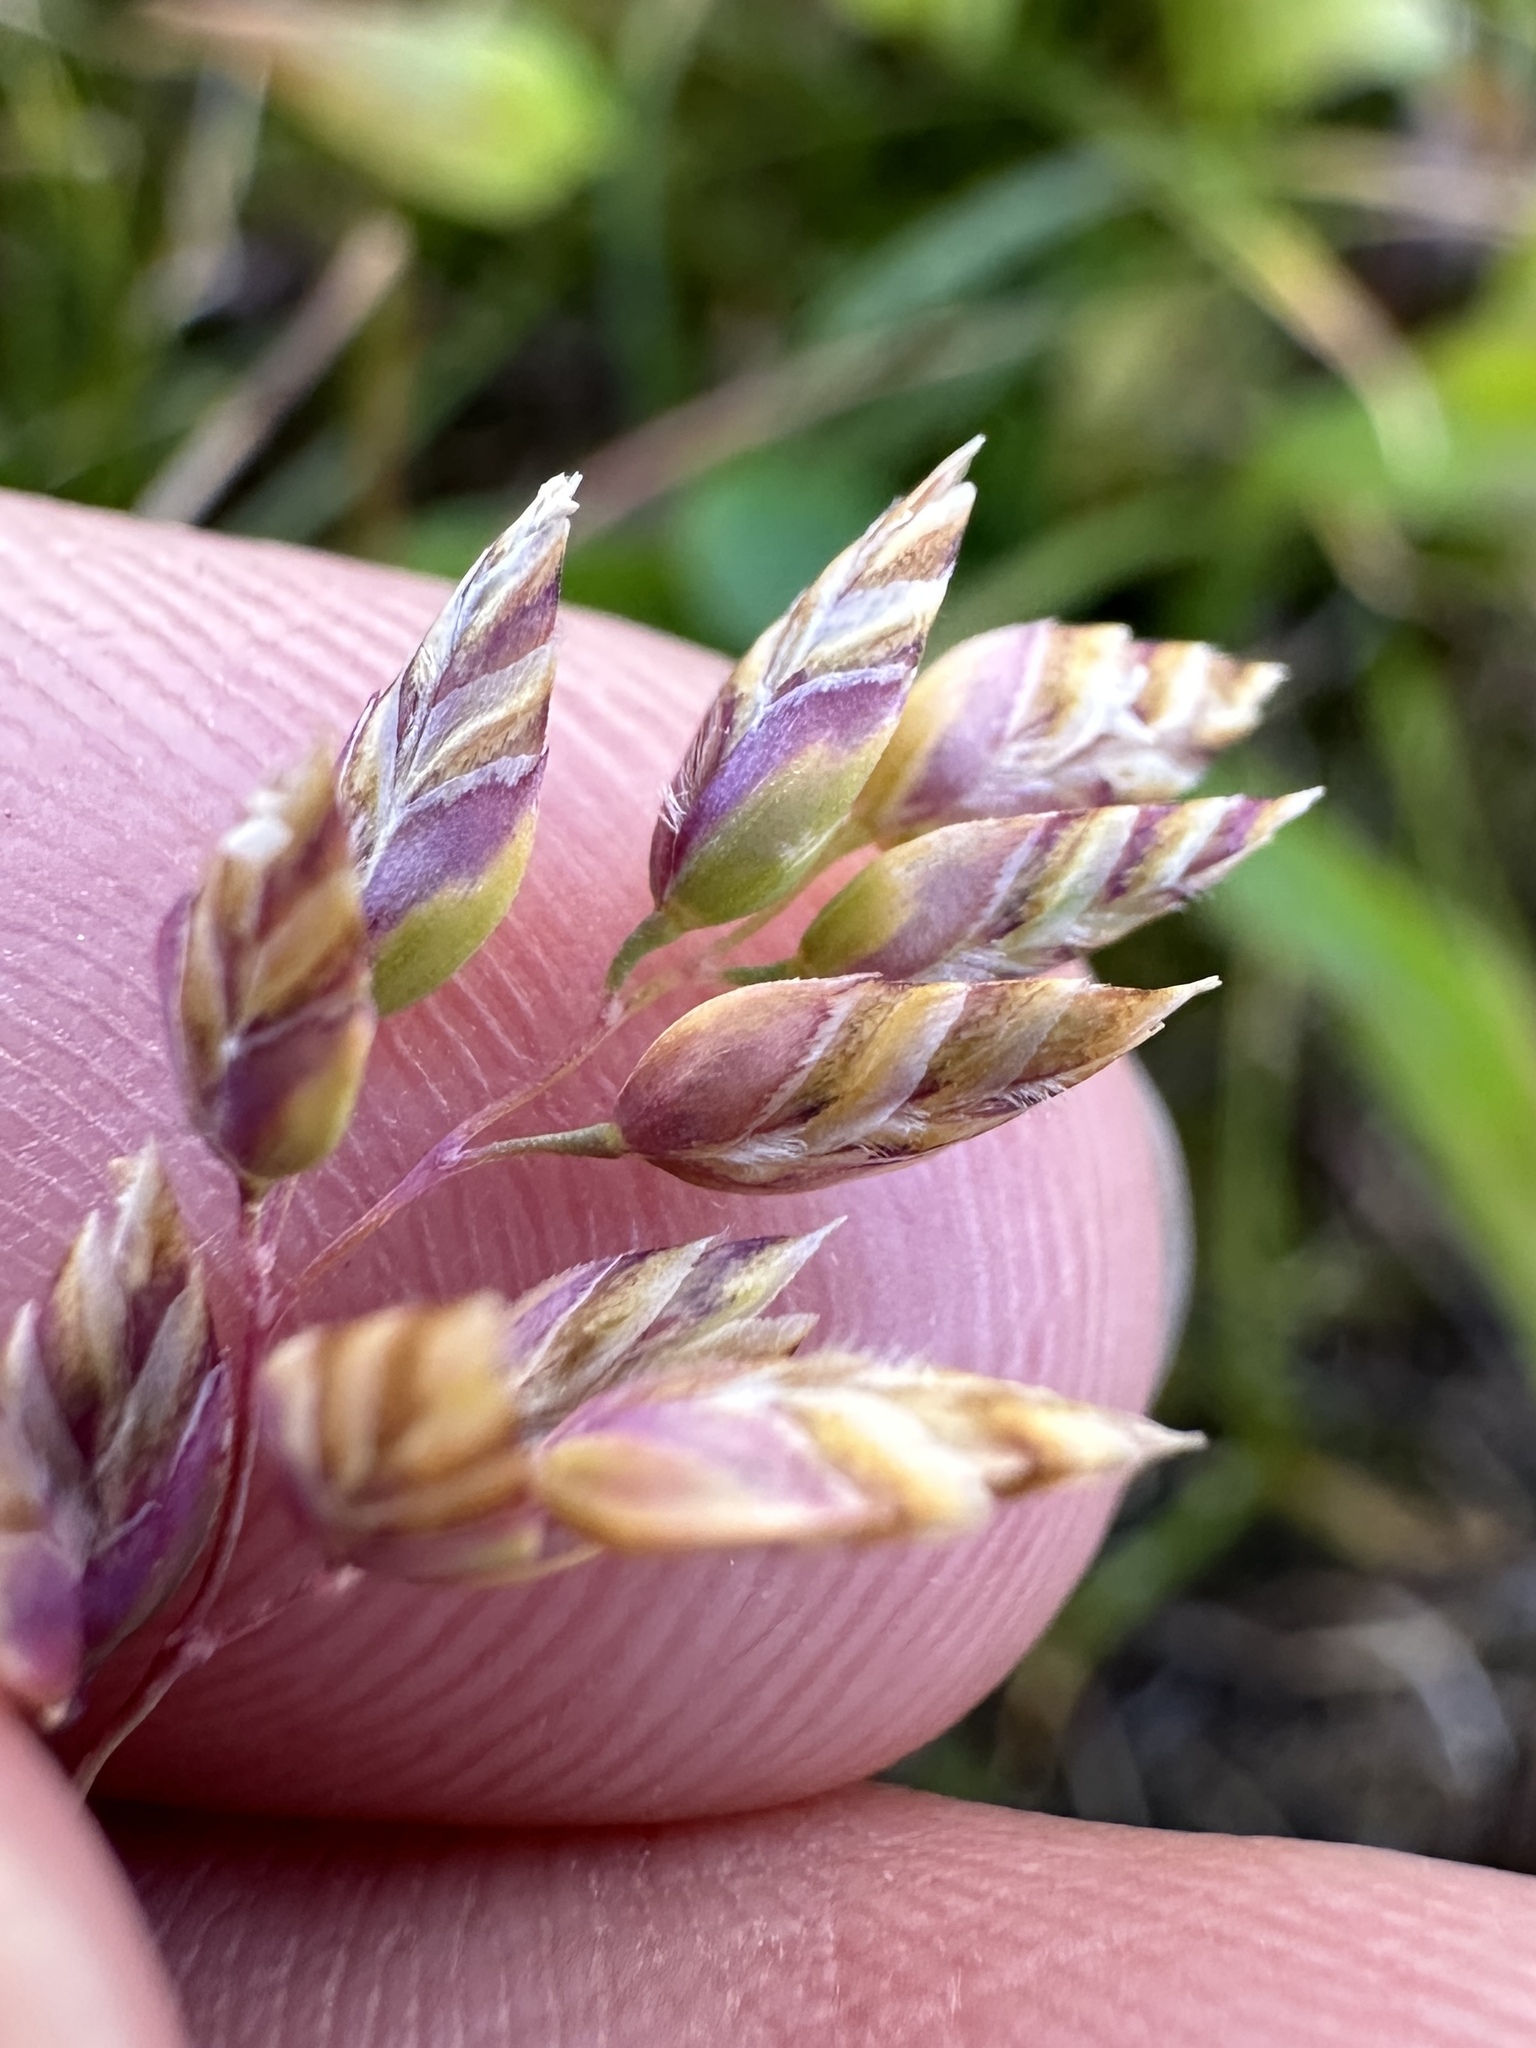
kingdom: Plantae
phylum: Tracheophyta
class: Liliopsida
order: Poales
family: Poaceae
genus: Poa
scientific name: Poa alpina
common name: Alpine bluegrass
